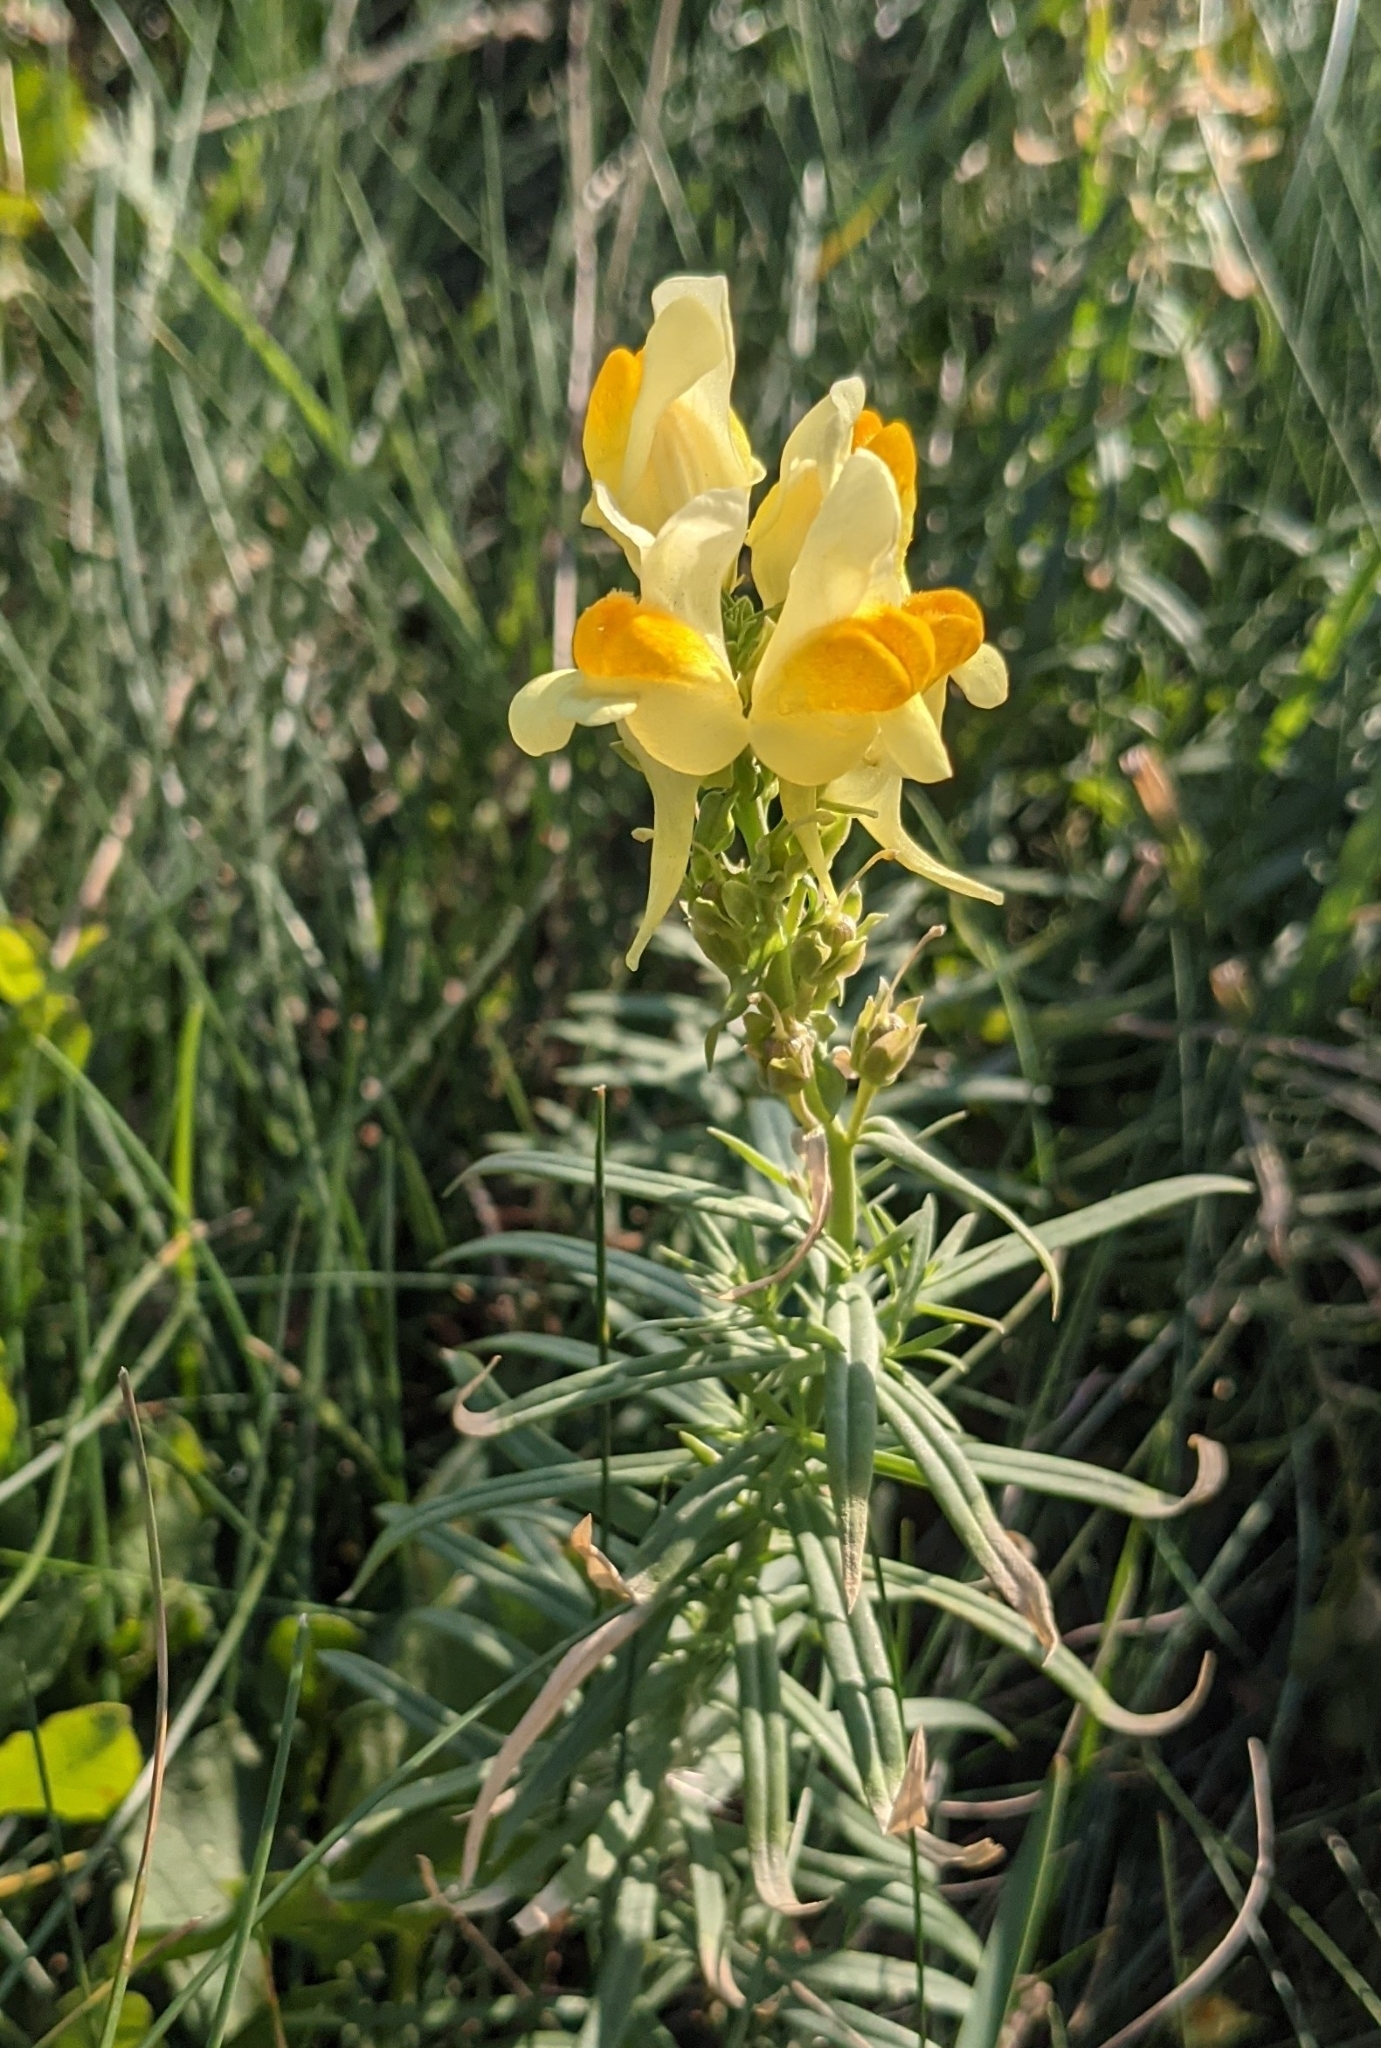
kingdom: Plantae
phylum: Tracheophyta
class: Magnoliopsida
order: Lamiales
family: Plantaginaceae
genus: Linaria
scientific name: Linaria vulgaris
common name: Butter and eggs
